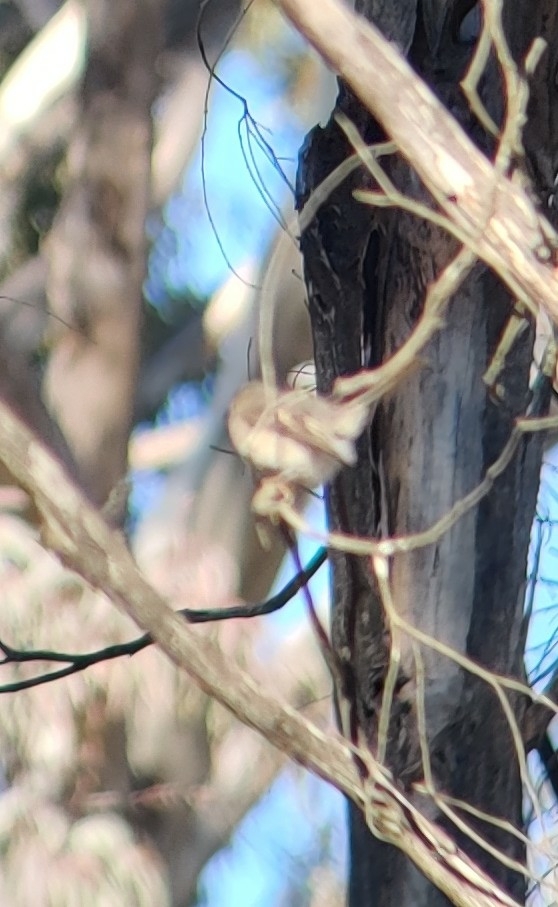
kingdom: Animalia
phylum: Chordata
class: Aves
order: Passeriformes
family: Petroicidae
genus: Petroica
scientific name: Petroica rosea
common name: Rose robin
